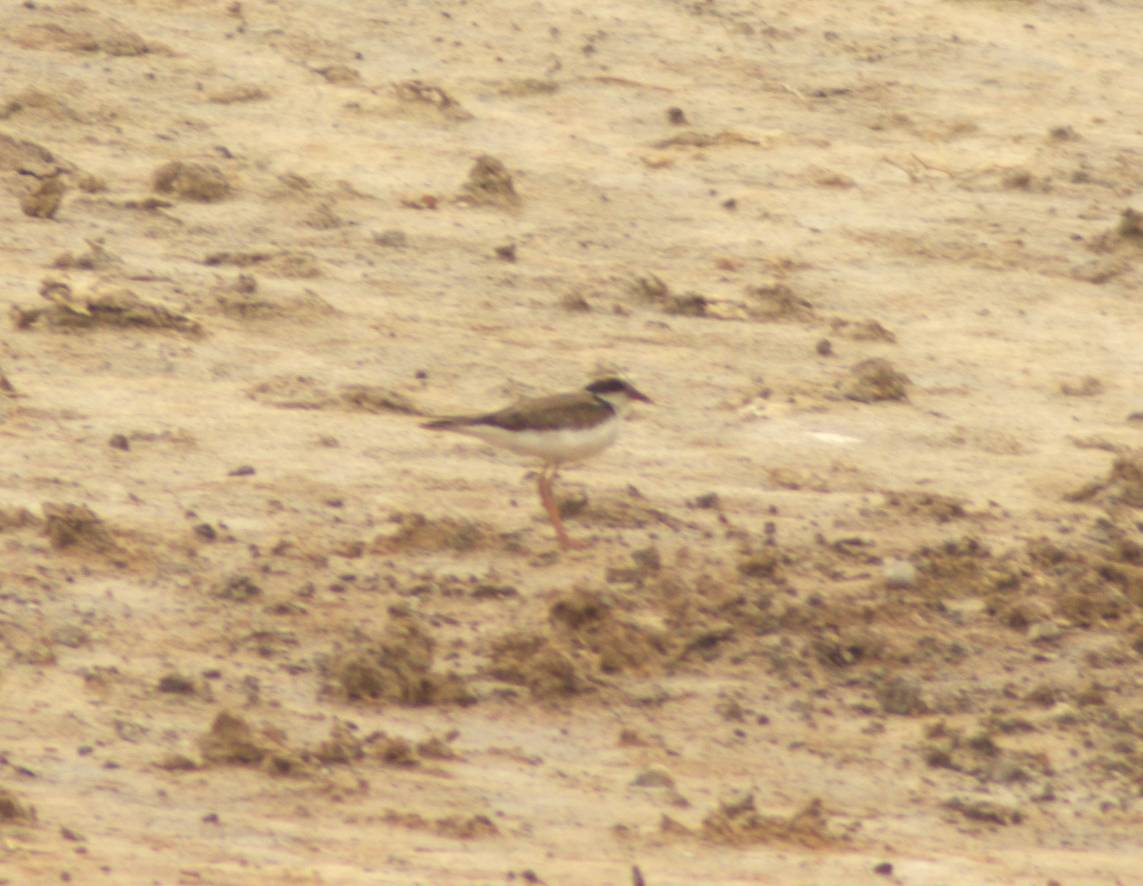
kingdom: Animalia
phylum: Chordata
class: Aves
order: Charadriiformes
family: Charadriidae
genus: Elseyornis
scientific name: Elseyornis melanops
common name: Black-fronted dotterel
